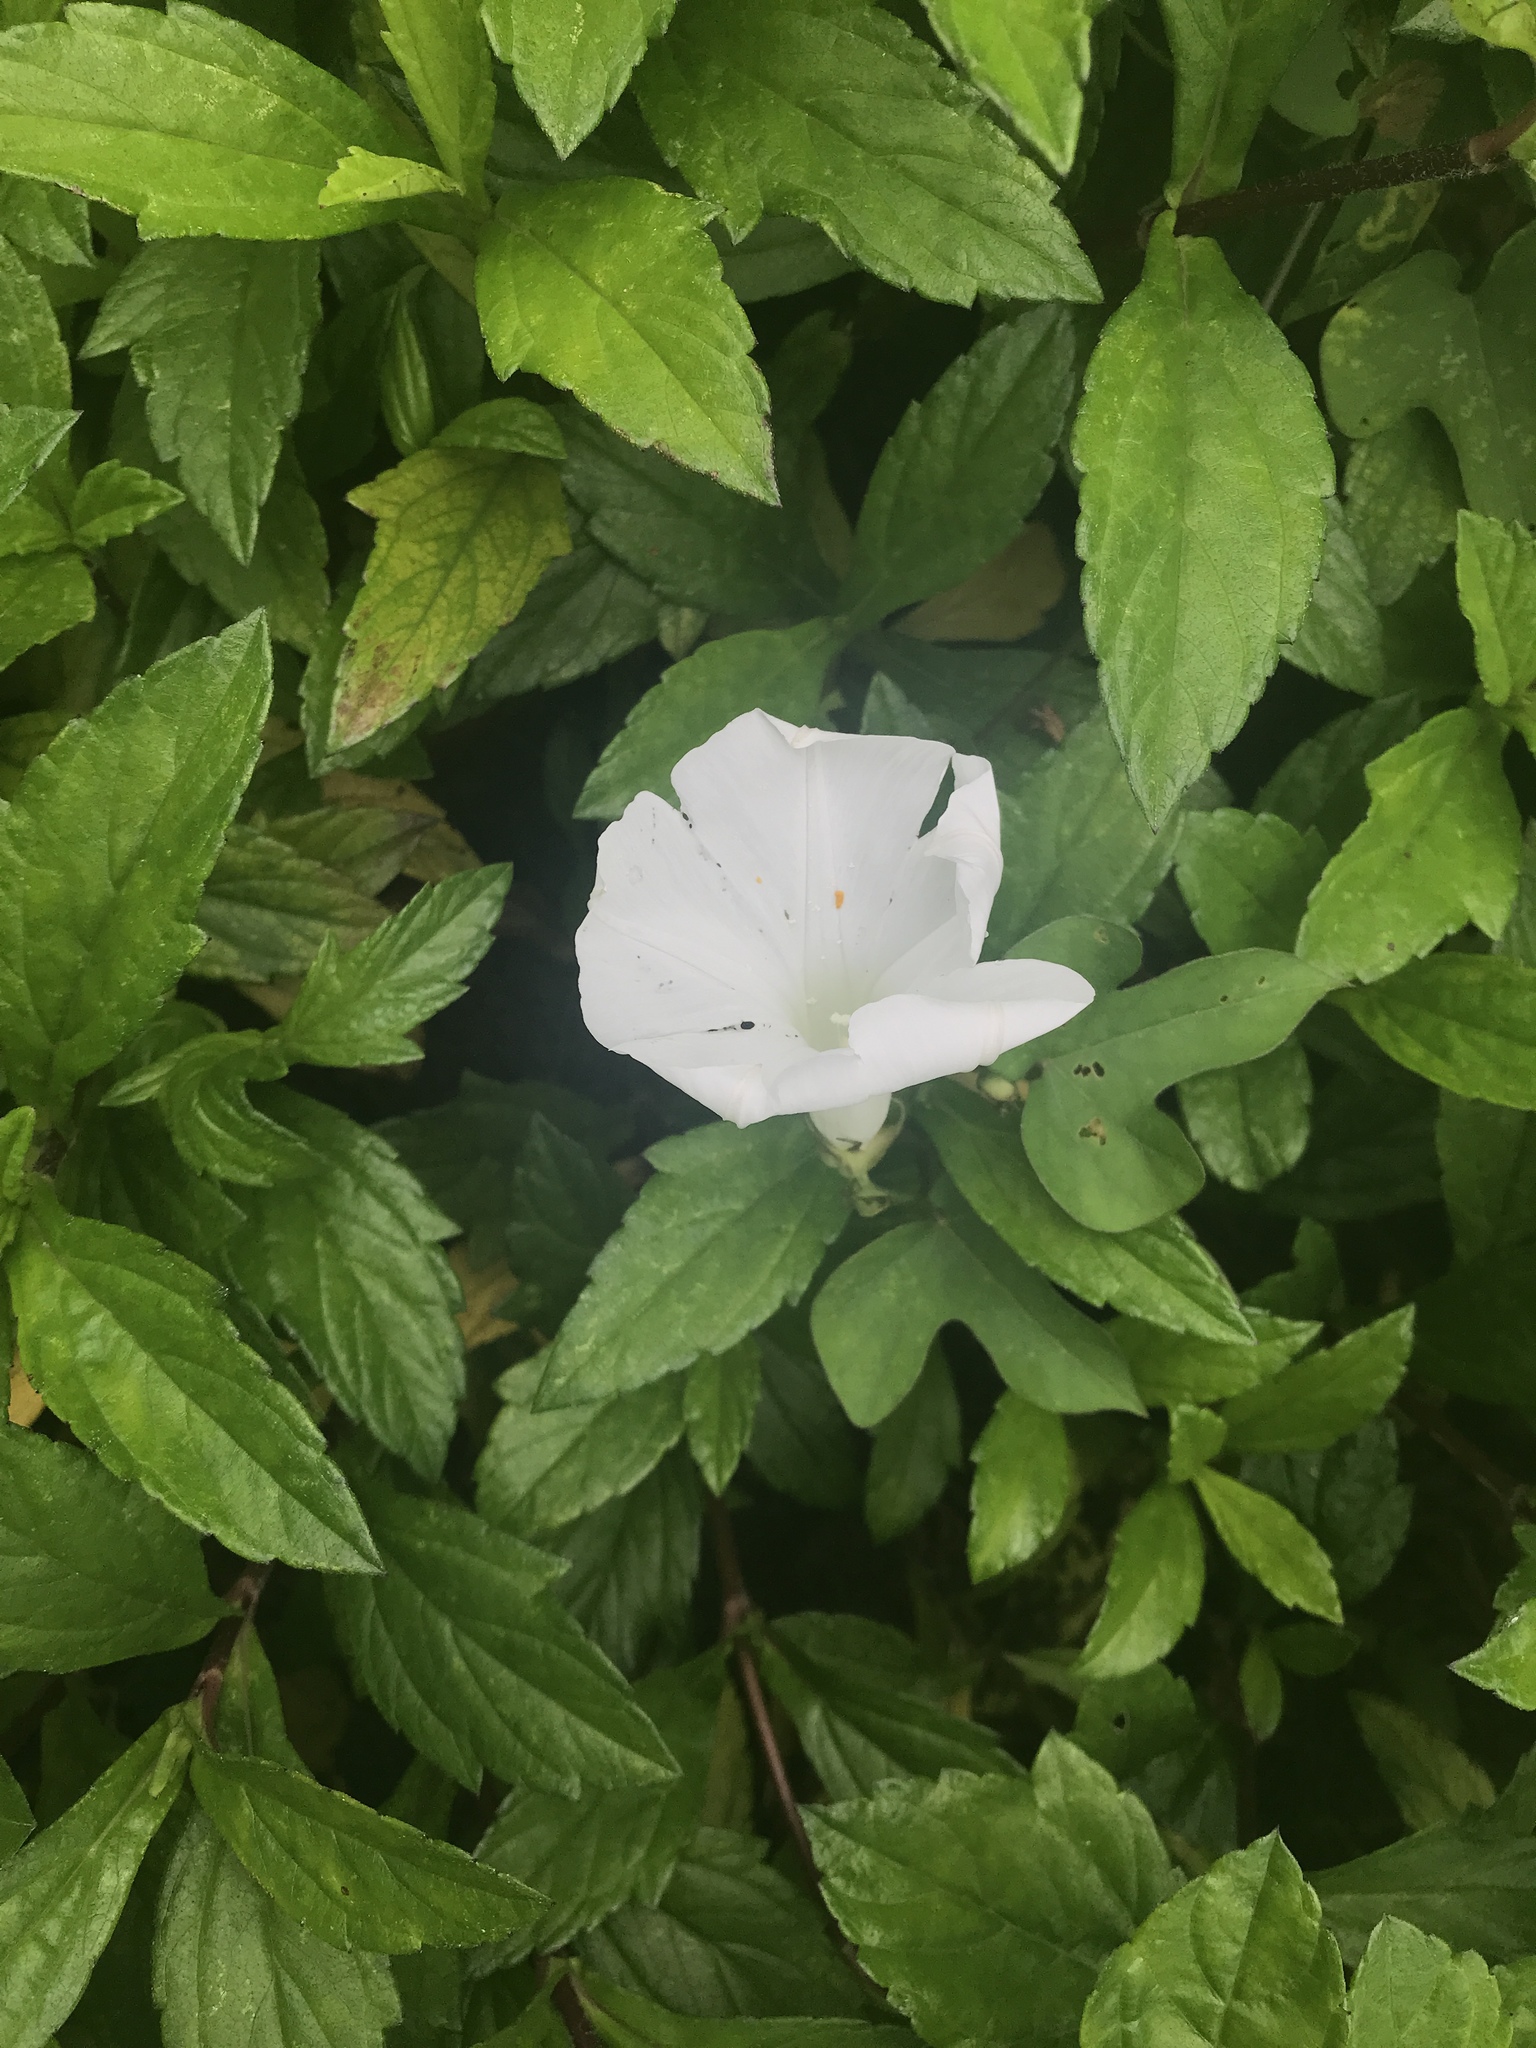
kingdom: Plantae
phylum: Tracheophyta
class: Magnoliopsida
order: Solanales
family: Convolvulaceae
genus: Ipomoea
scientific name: Ipomoea indica
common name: Blue dawnflower
